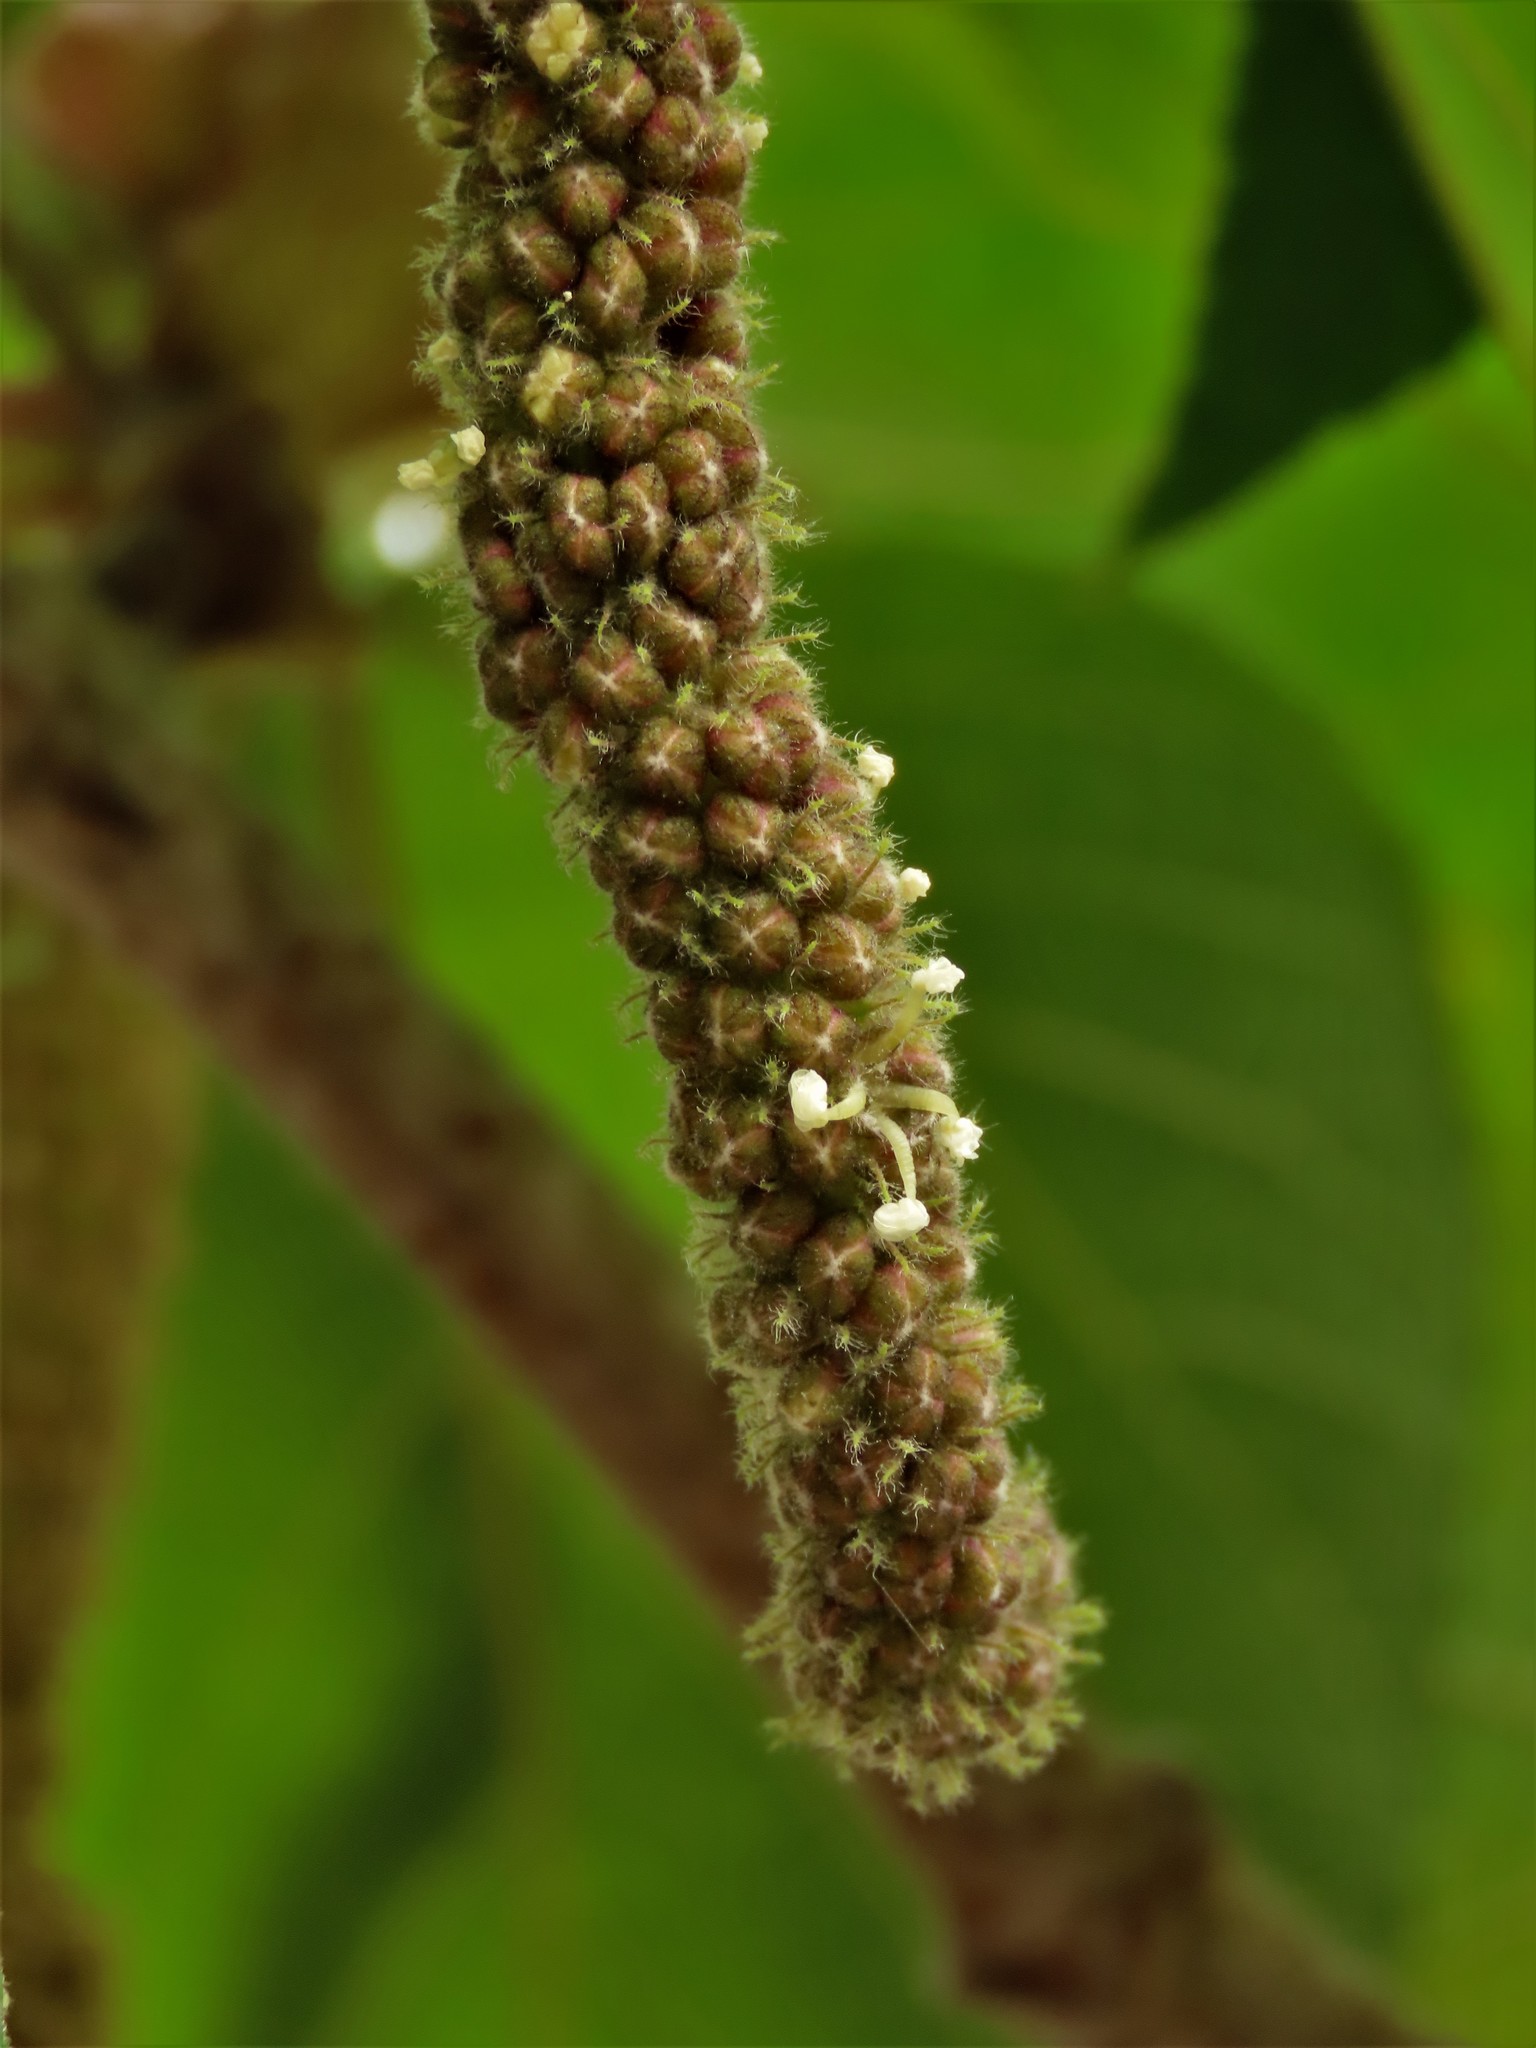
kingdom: Plantae
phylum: Tracheophyta
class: Magnoliopsida
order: Rosales
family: Moraceae
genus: Broussonetia
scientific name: Broussonetia papyrifera
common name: Paper mulberry
